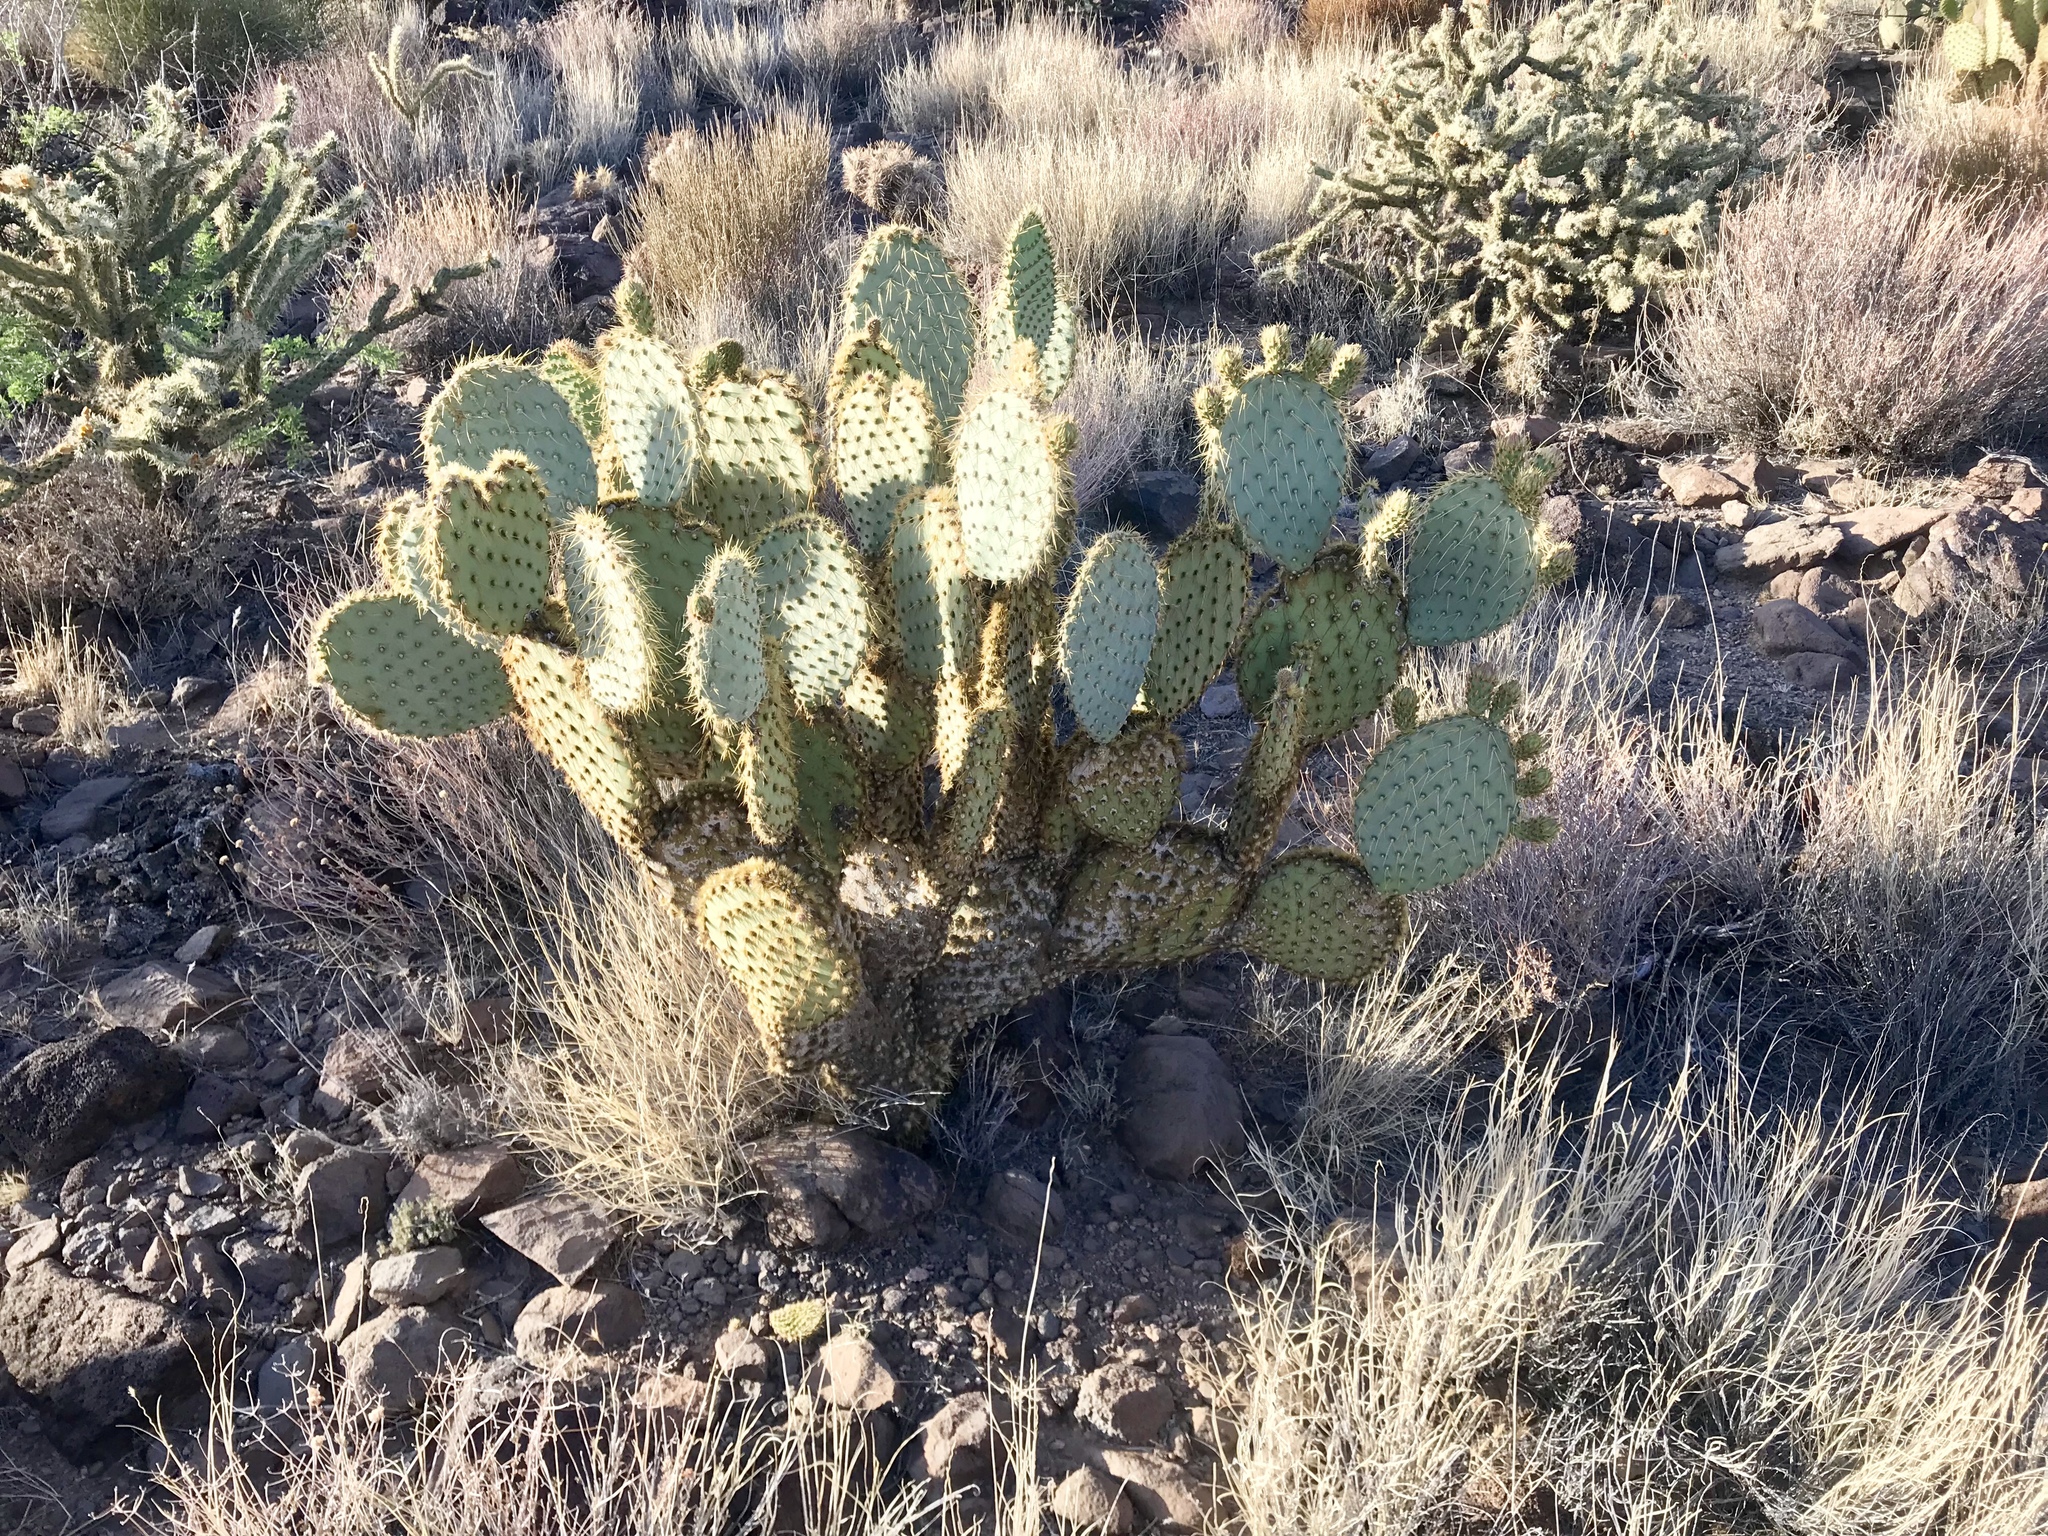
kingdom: Plantae
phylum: Tracheophyta
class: Magnoliopsida
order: Caryophyllales
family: Cactaceae
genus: Opuntia
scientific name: Opuntia chlorotica
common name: Dollar-joint prickly-pear
